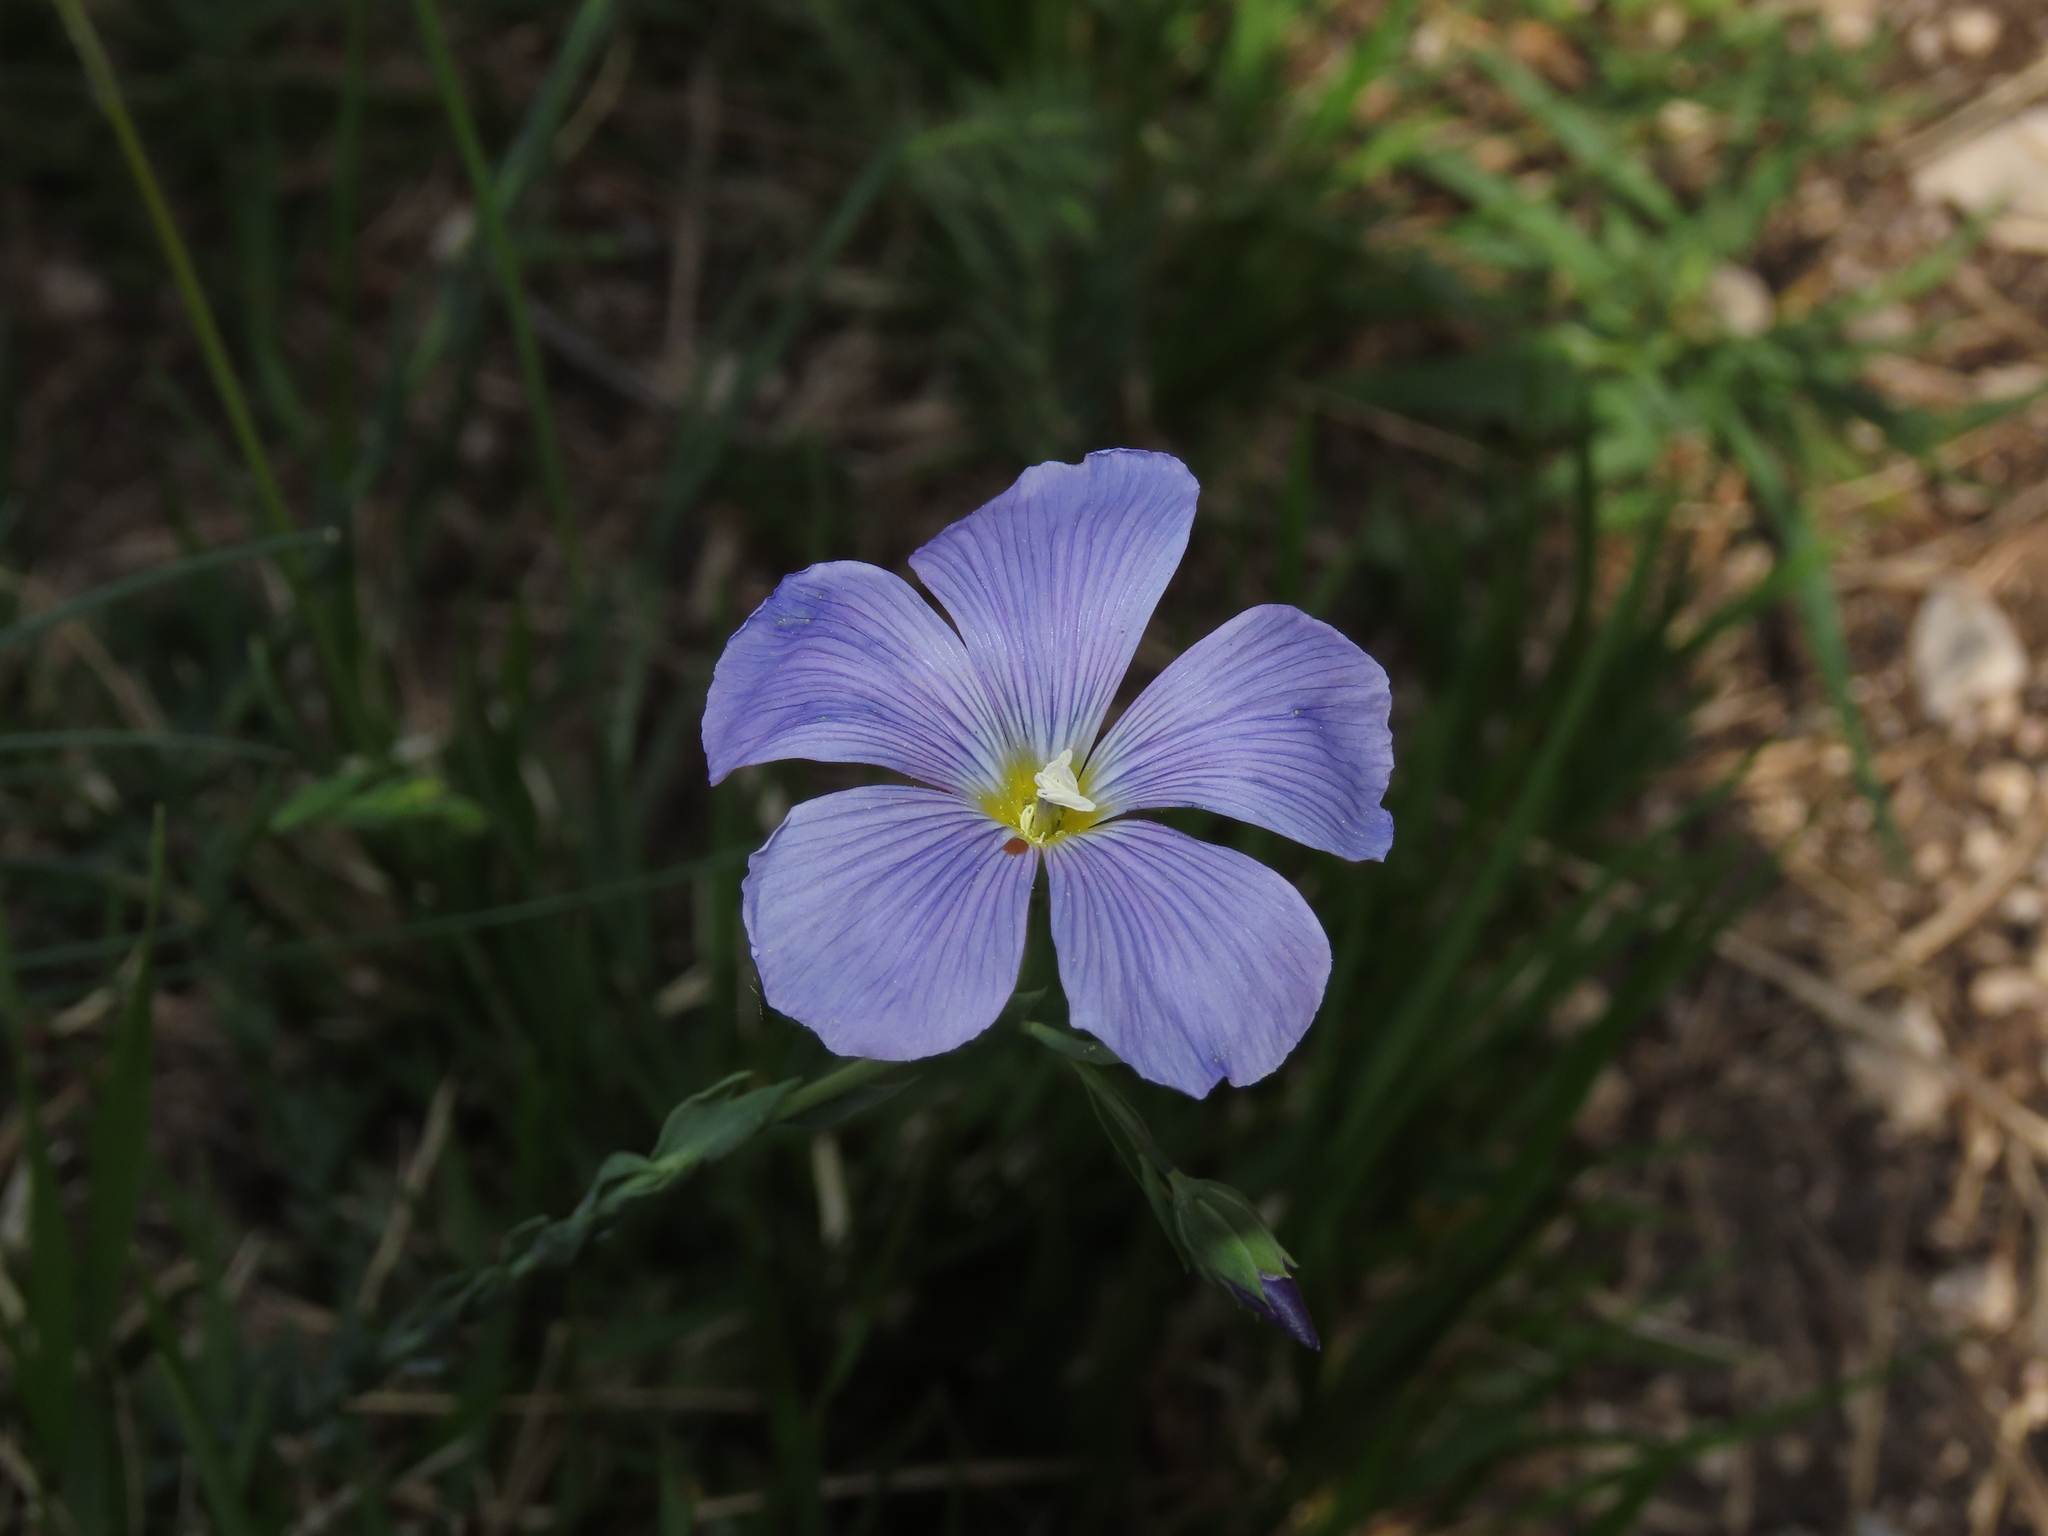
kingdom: Plantae
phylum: Tracheophyta
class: Magnoliopsida
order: Malpighiales
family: Linaceae
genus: Linum
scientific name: Linum alpinum
